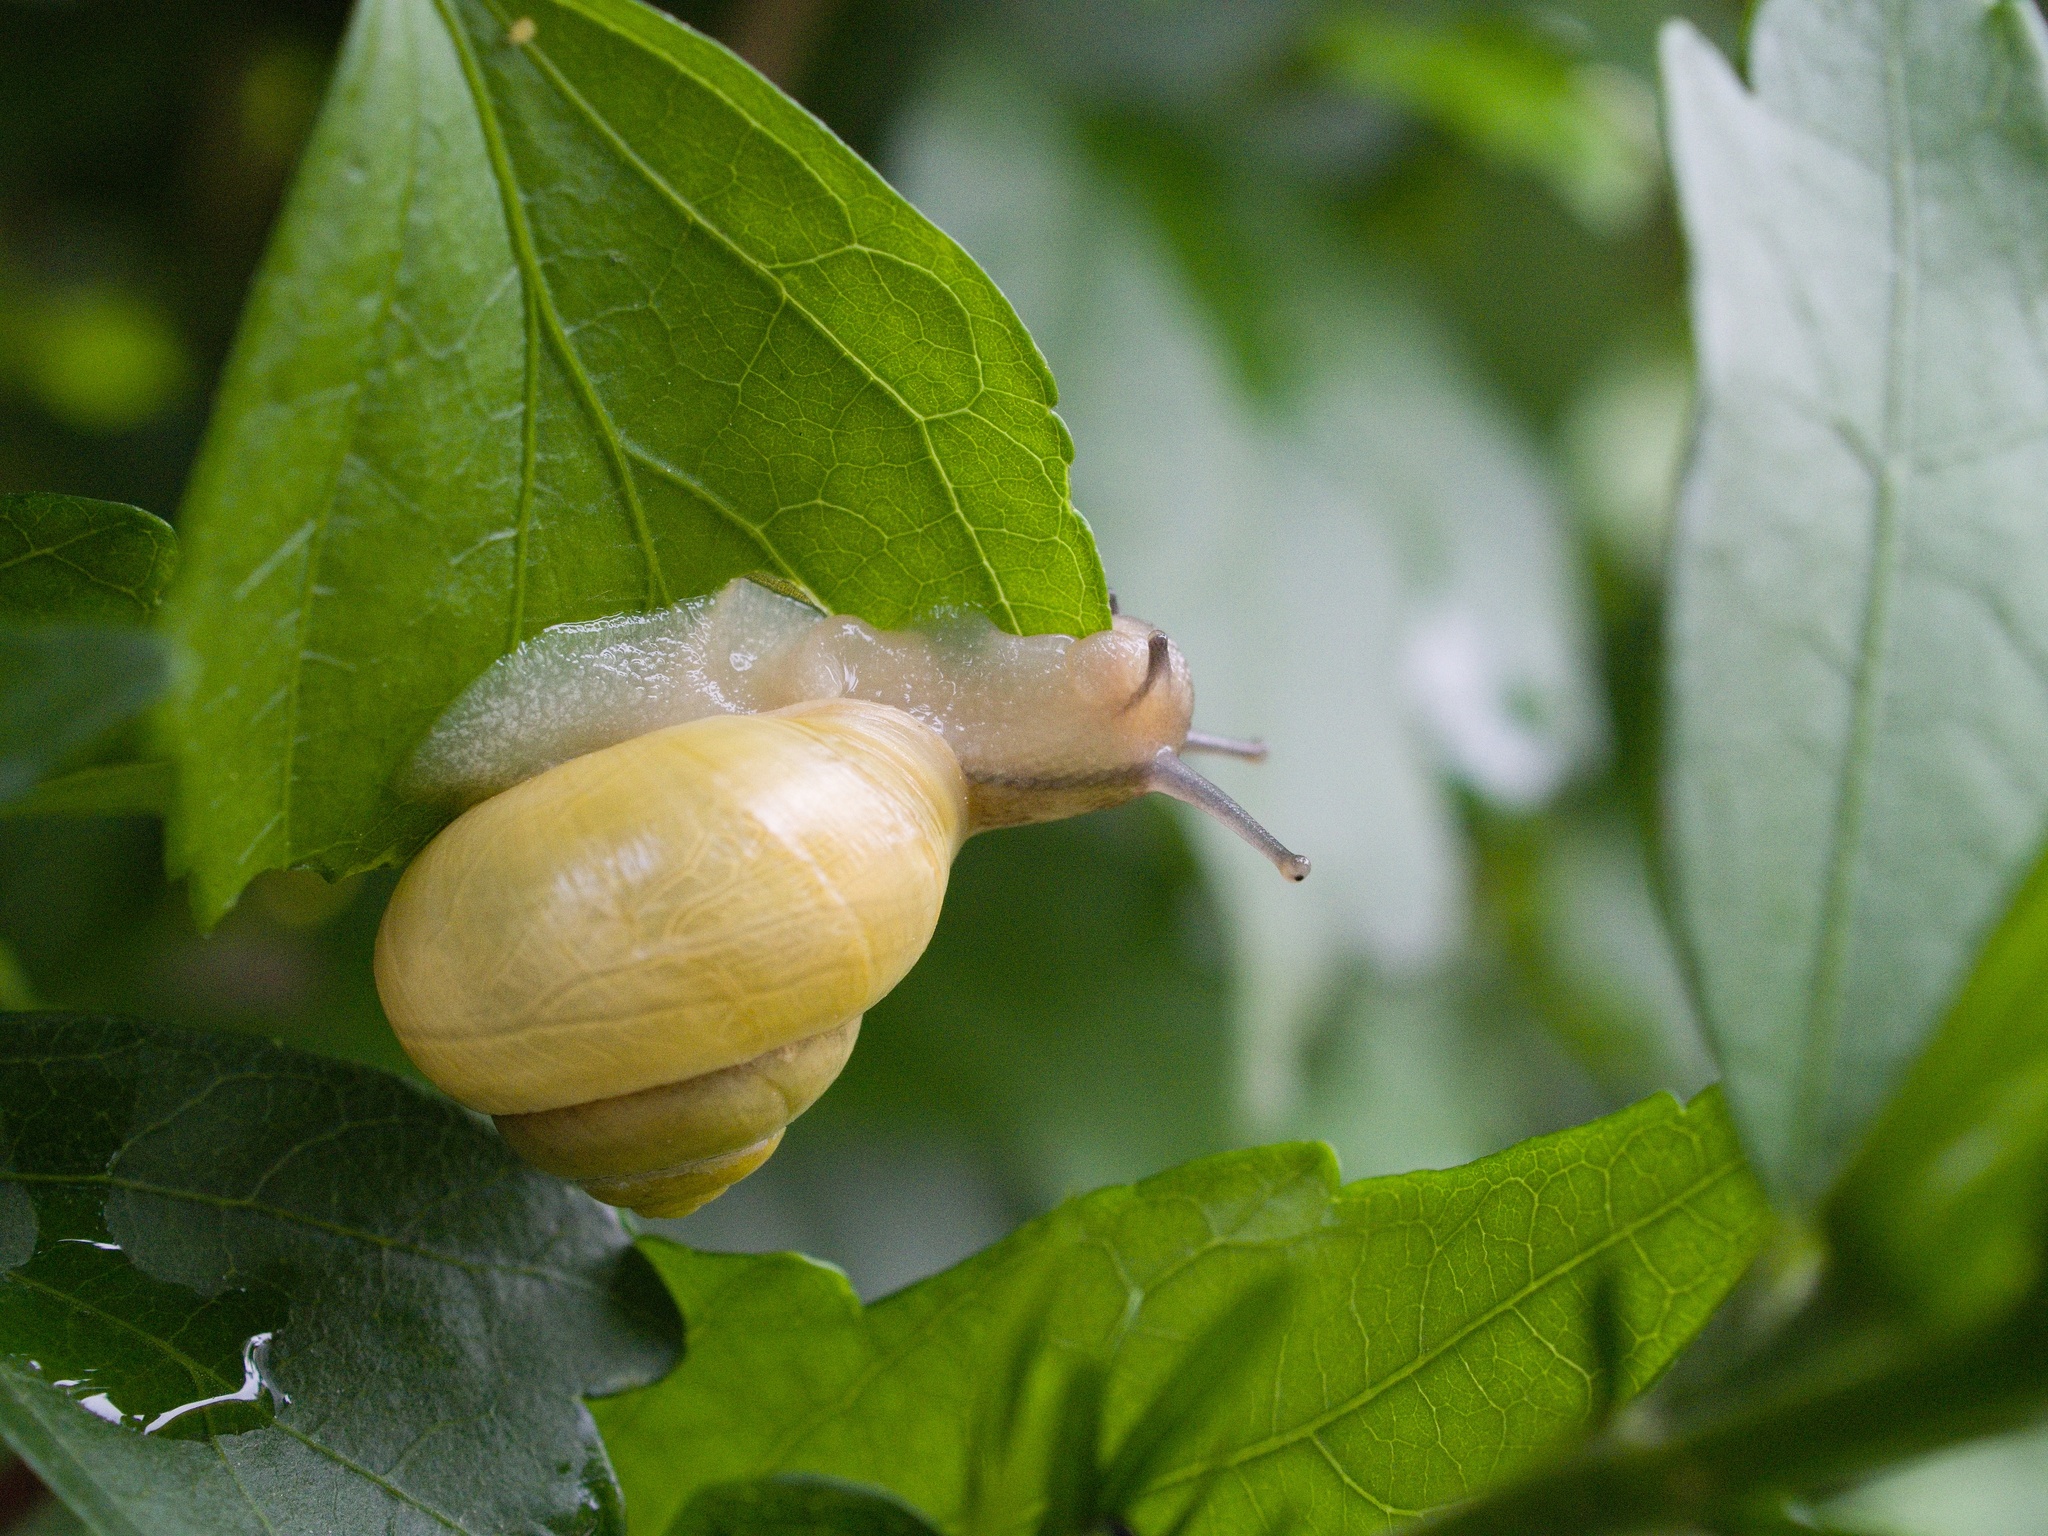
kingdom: Animalia
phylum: Mollusca
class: Gastropoda
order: Stylommatophora
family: Helicidae
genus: Cepaea
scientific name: Cepaea hortensis
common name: White-lip gardensnail
